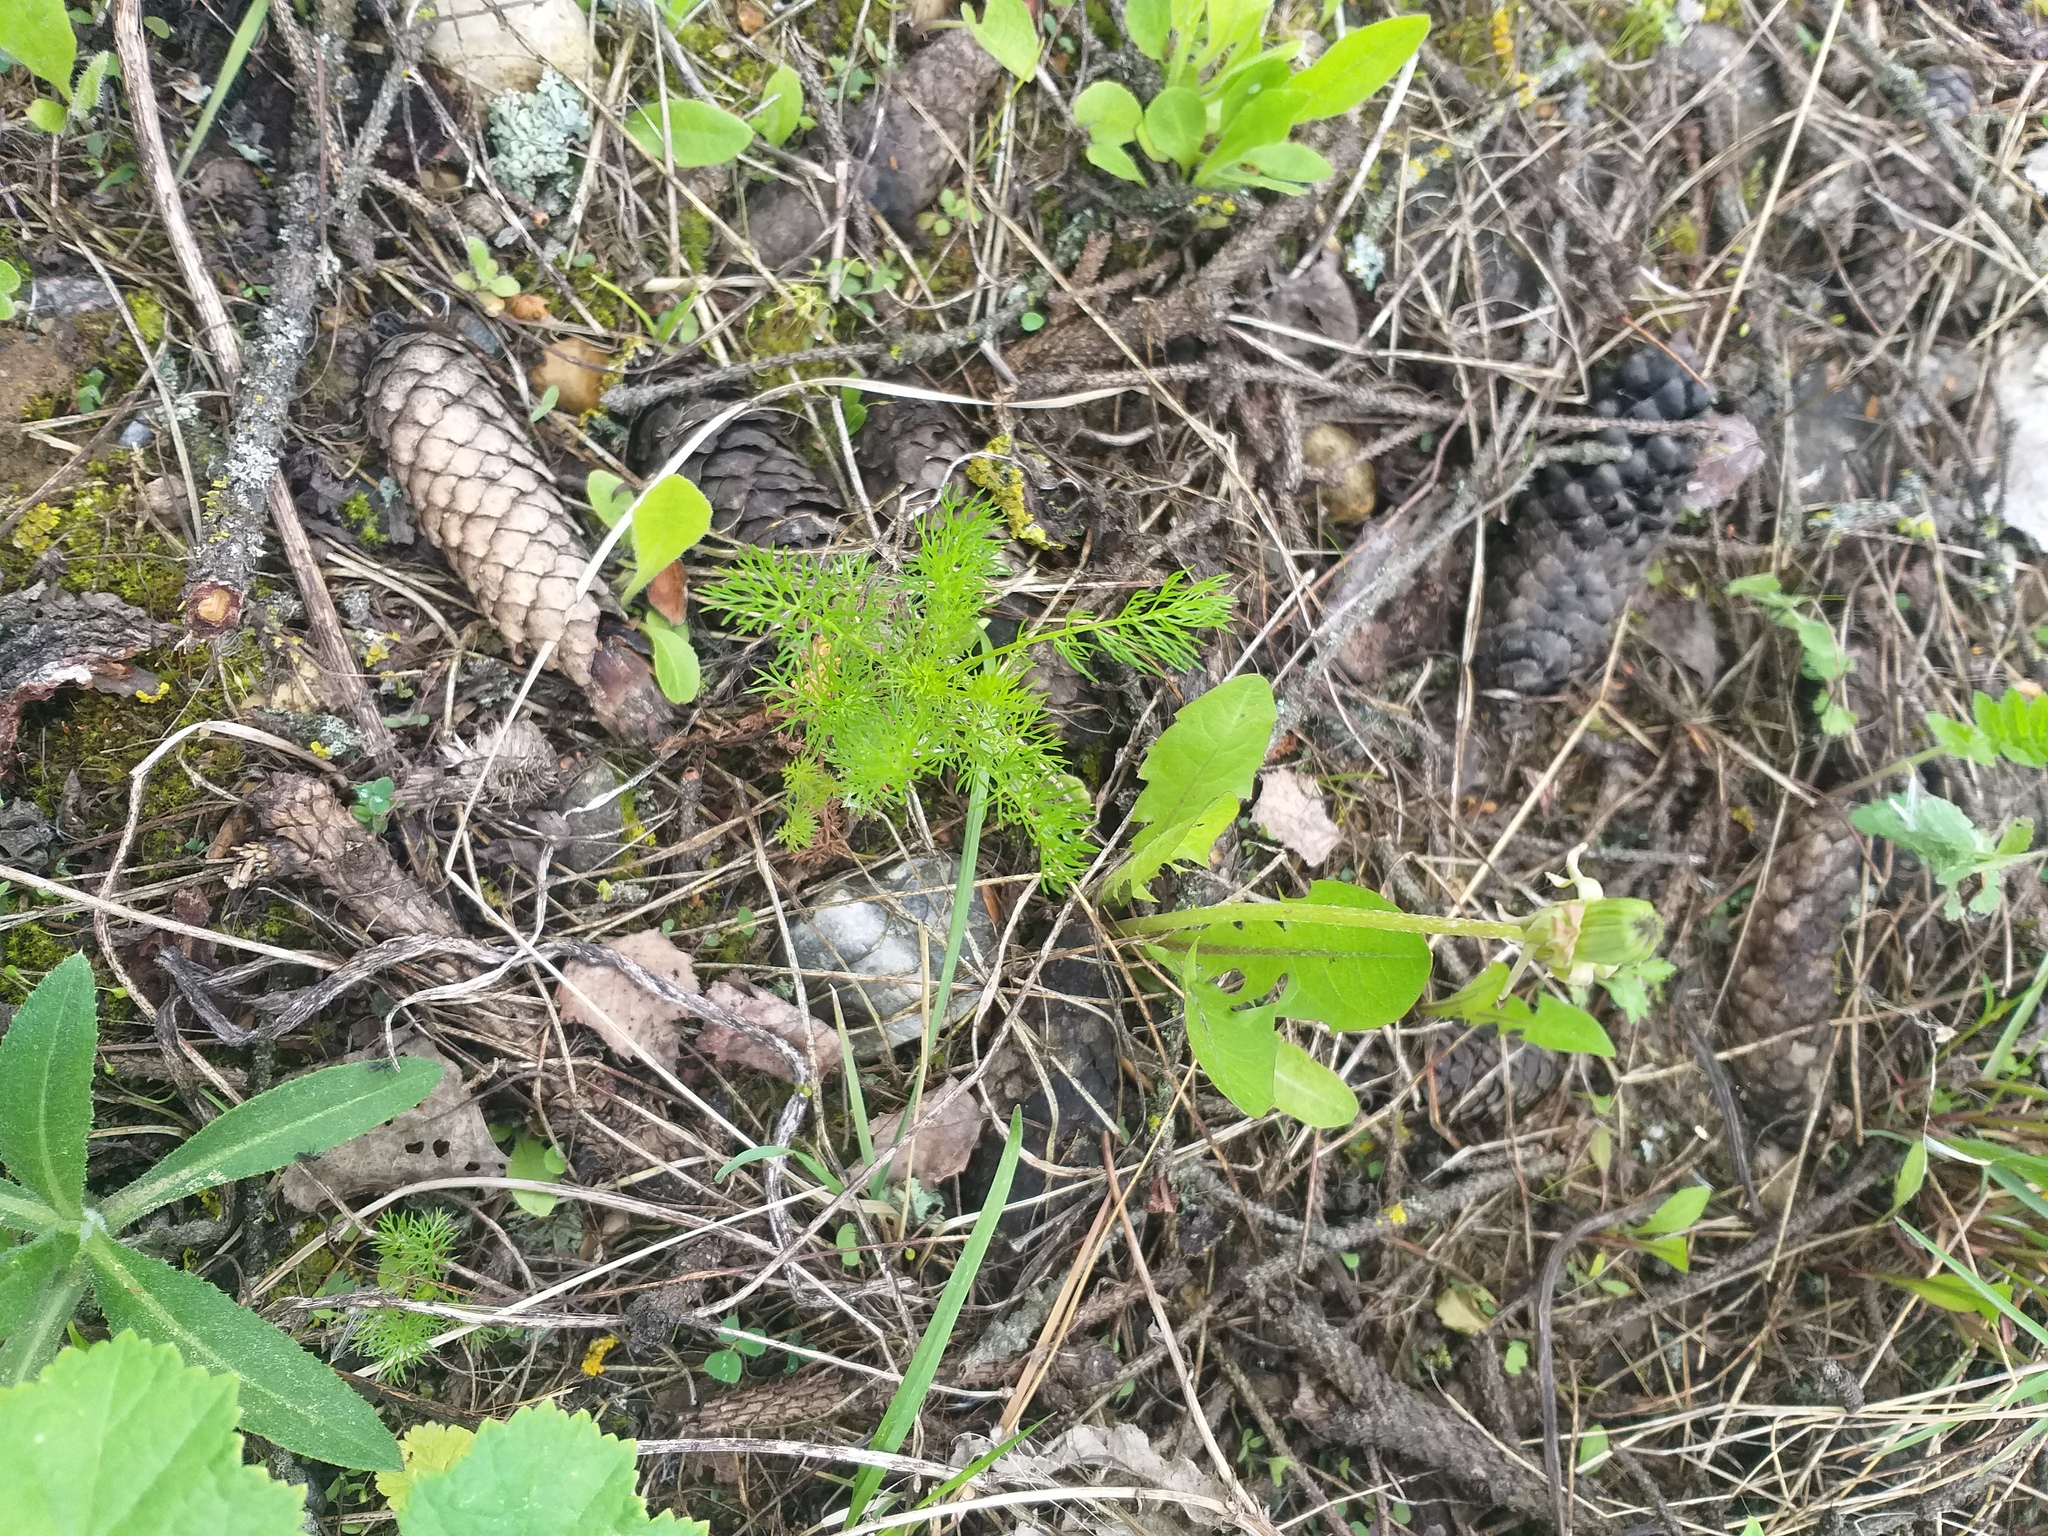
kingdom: Plantae
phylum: Tracheophyta
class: Magnoliopsida
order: Asterales
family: Asteraceae
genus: Tripleurospermum
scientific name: Tripleurospermum inodorum
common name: Scentless mayweed
